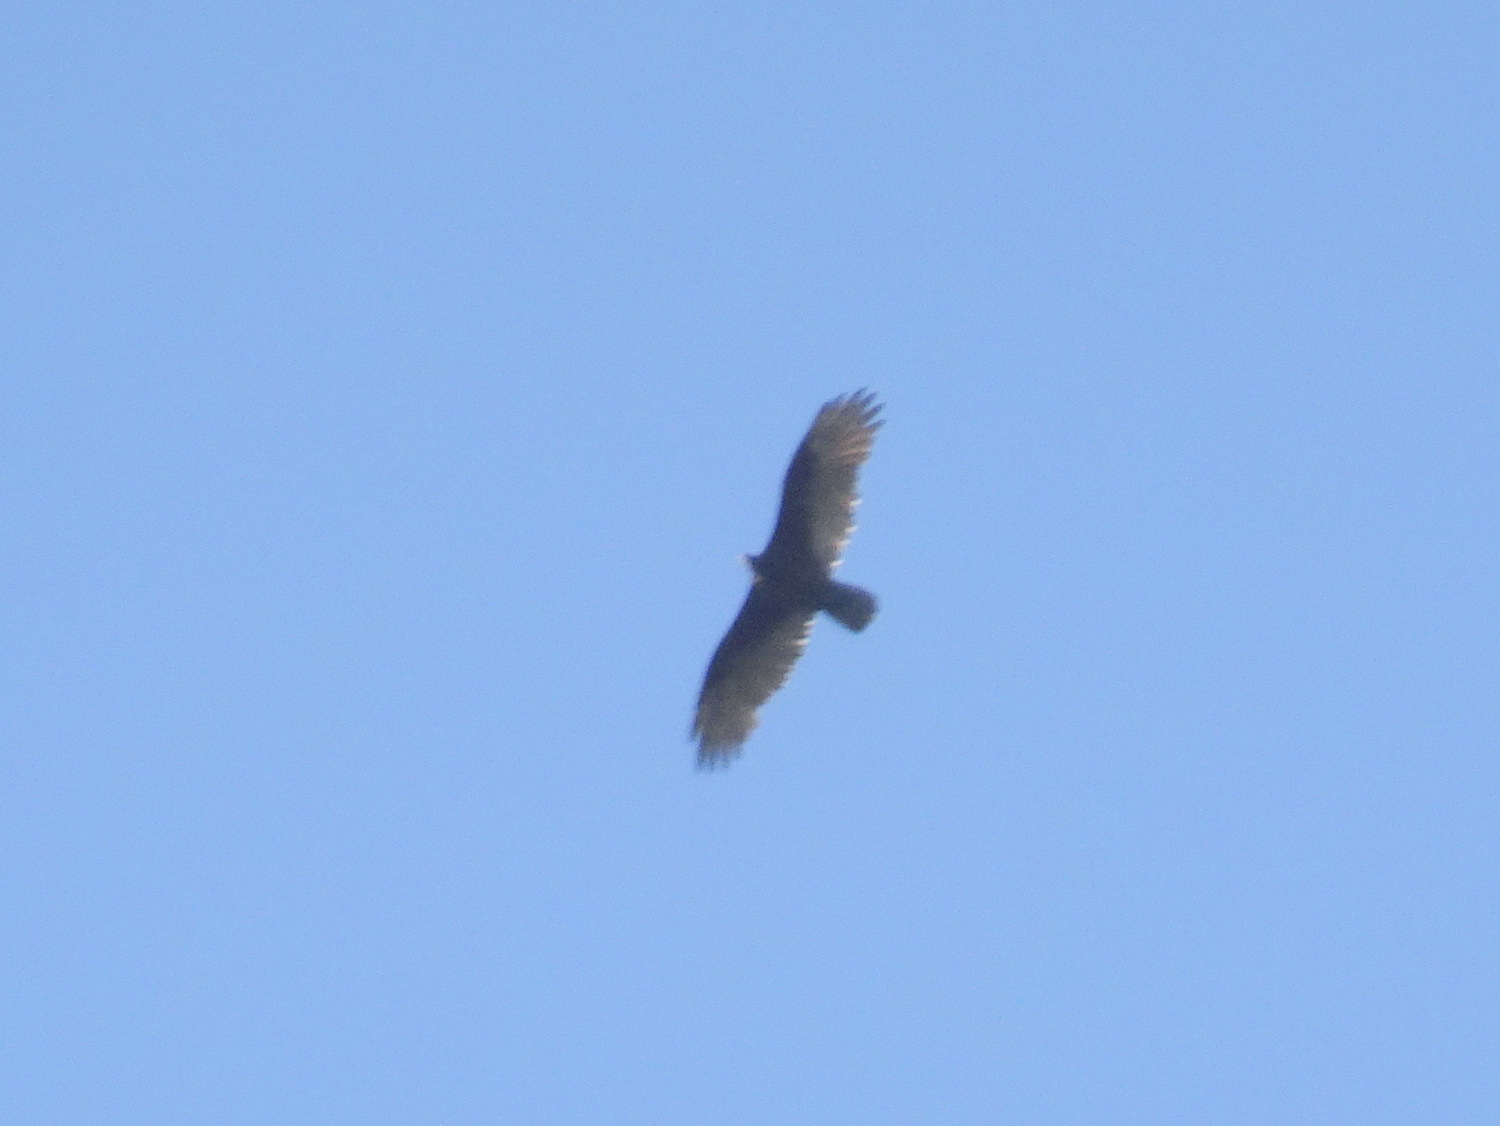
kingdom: Animalia
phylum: Chordata
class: Aves
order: Accipitriformes
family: Cathartidae
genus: Cathartes
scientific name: Cathartes aura
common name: Turkey vulture
